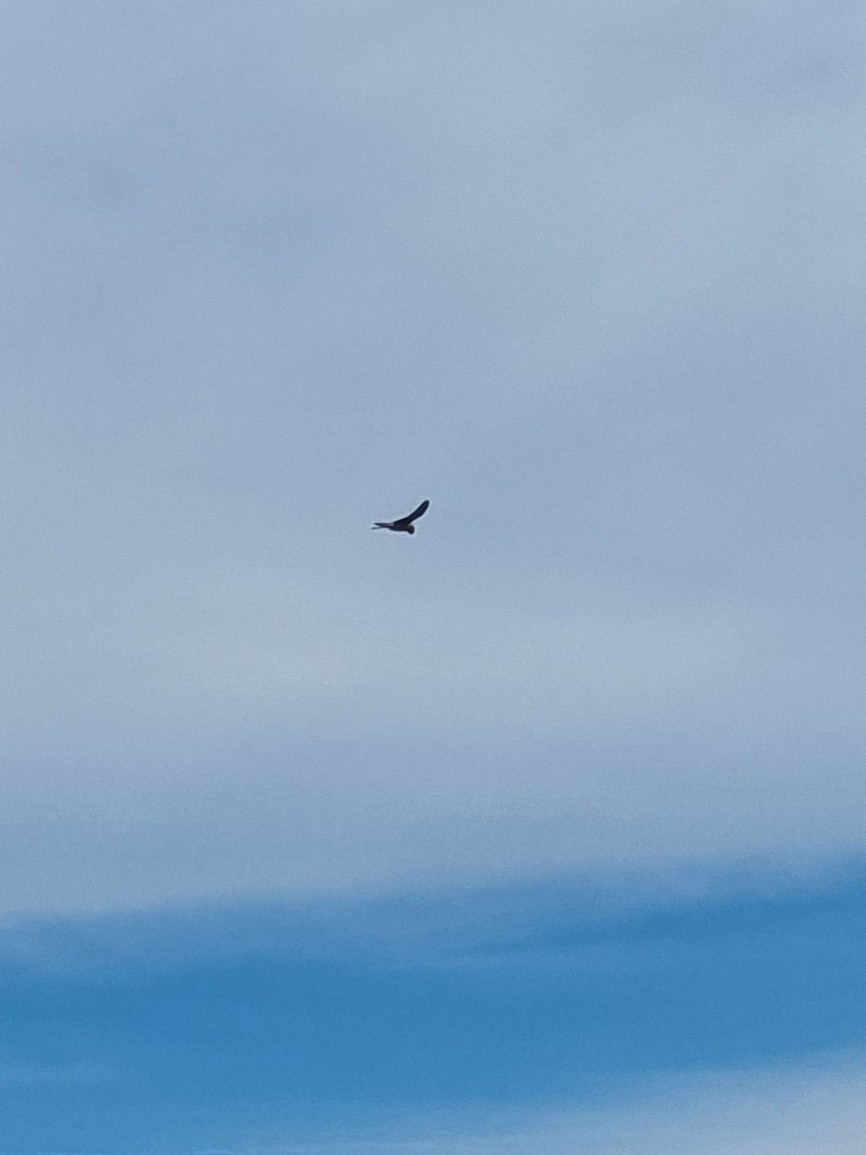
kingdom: Animalia
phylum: Chordata
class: Aves
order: Falconiformes
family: Falconidae
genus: Falco
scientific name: Falco tinnunculus
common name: Common kestrel
